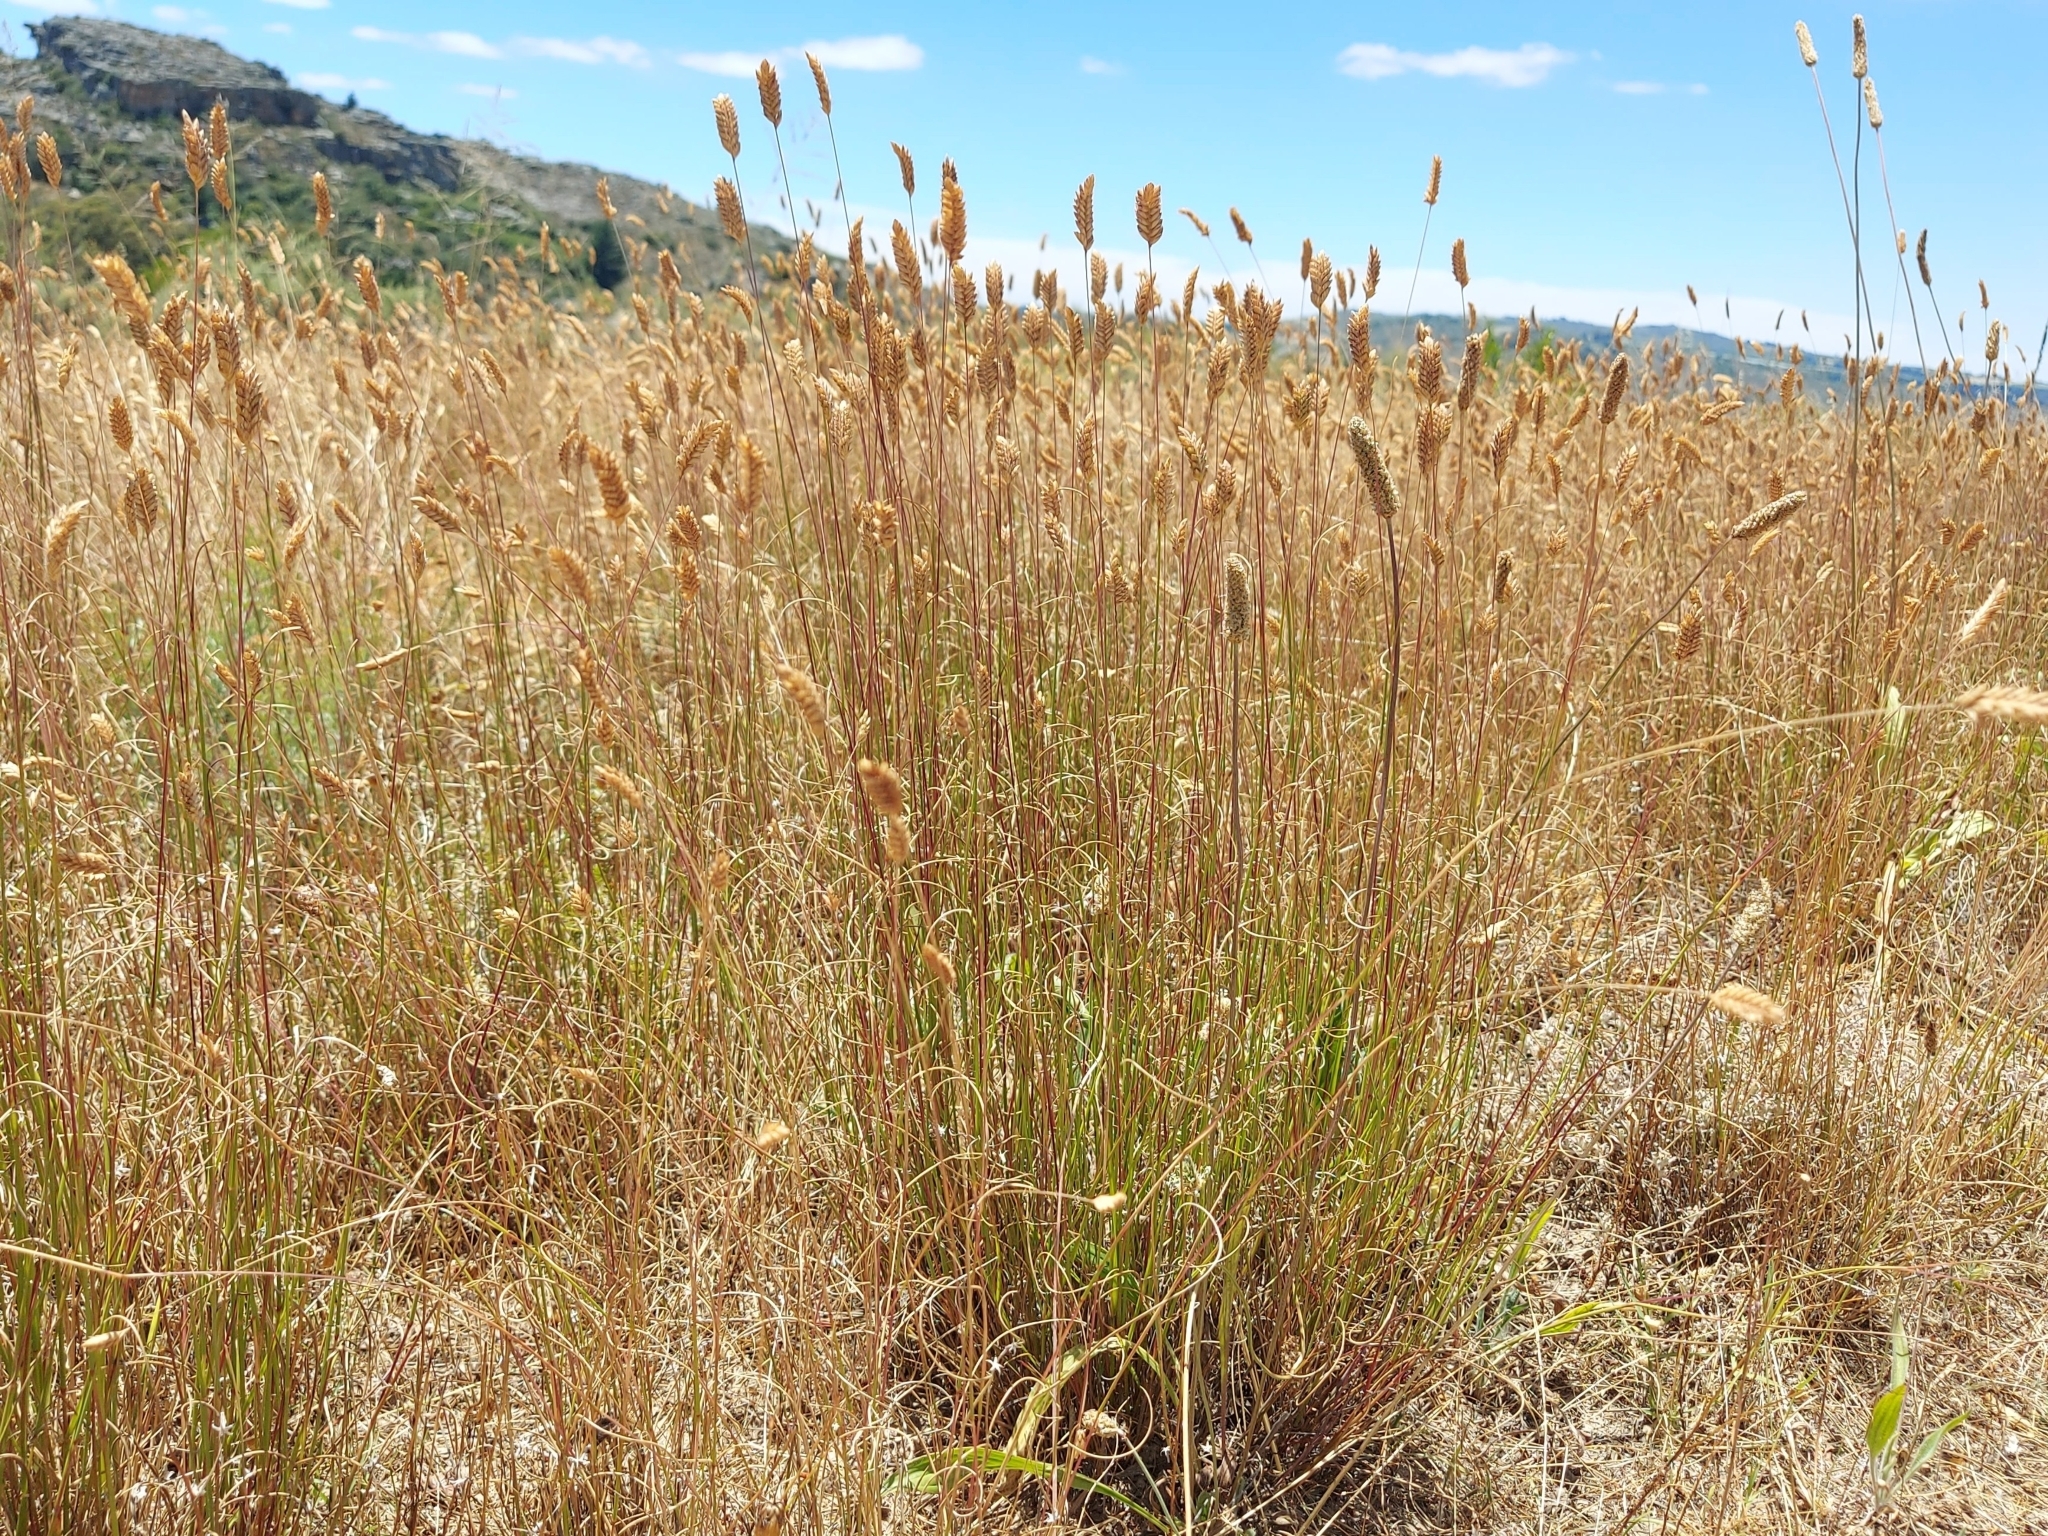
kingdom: Plantae
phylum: Tracheophyta
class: Liliopsida
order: Poales
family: Poaceae
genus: Tribolium
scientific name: Tribolium uniolae
